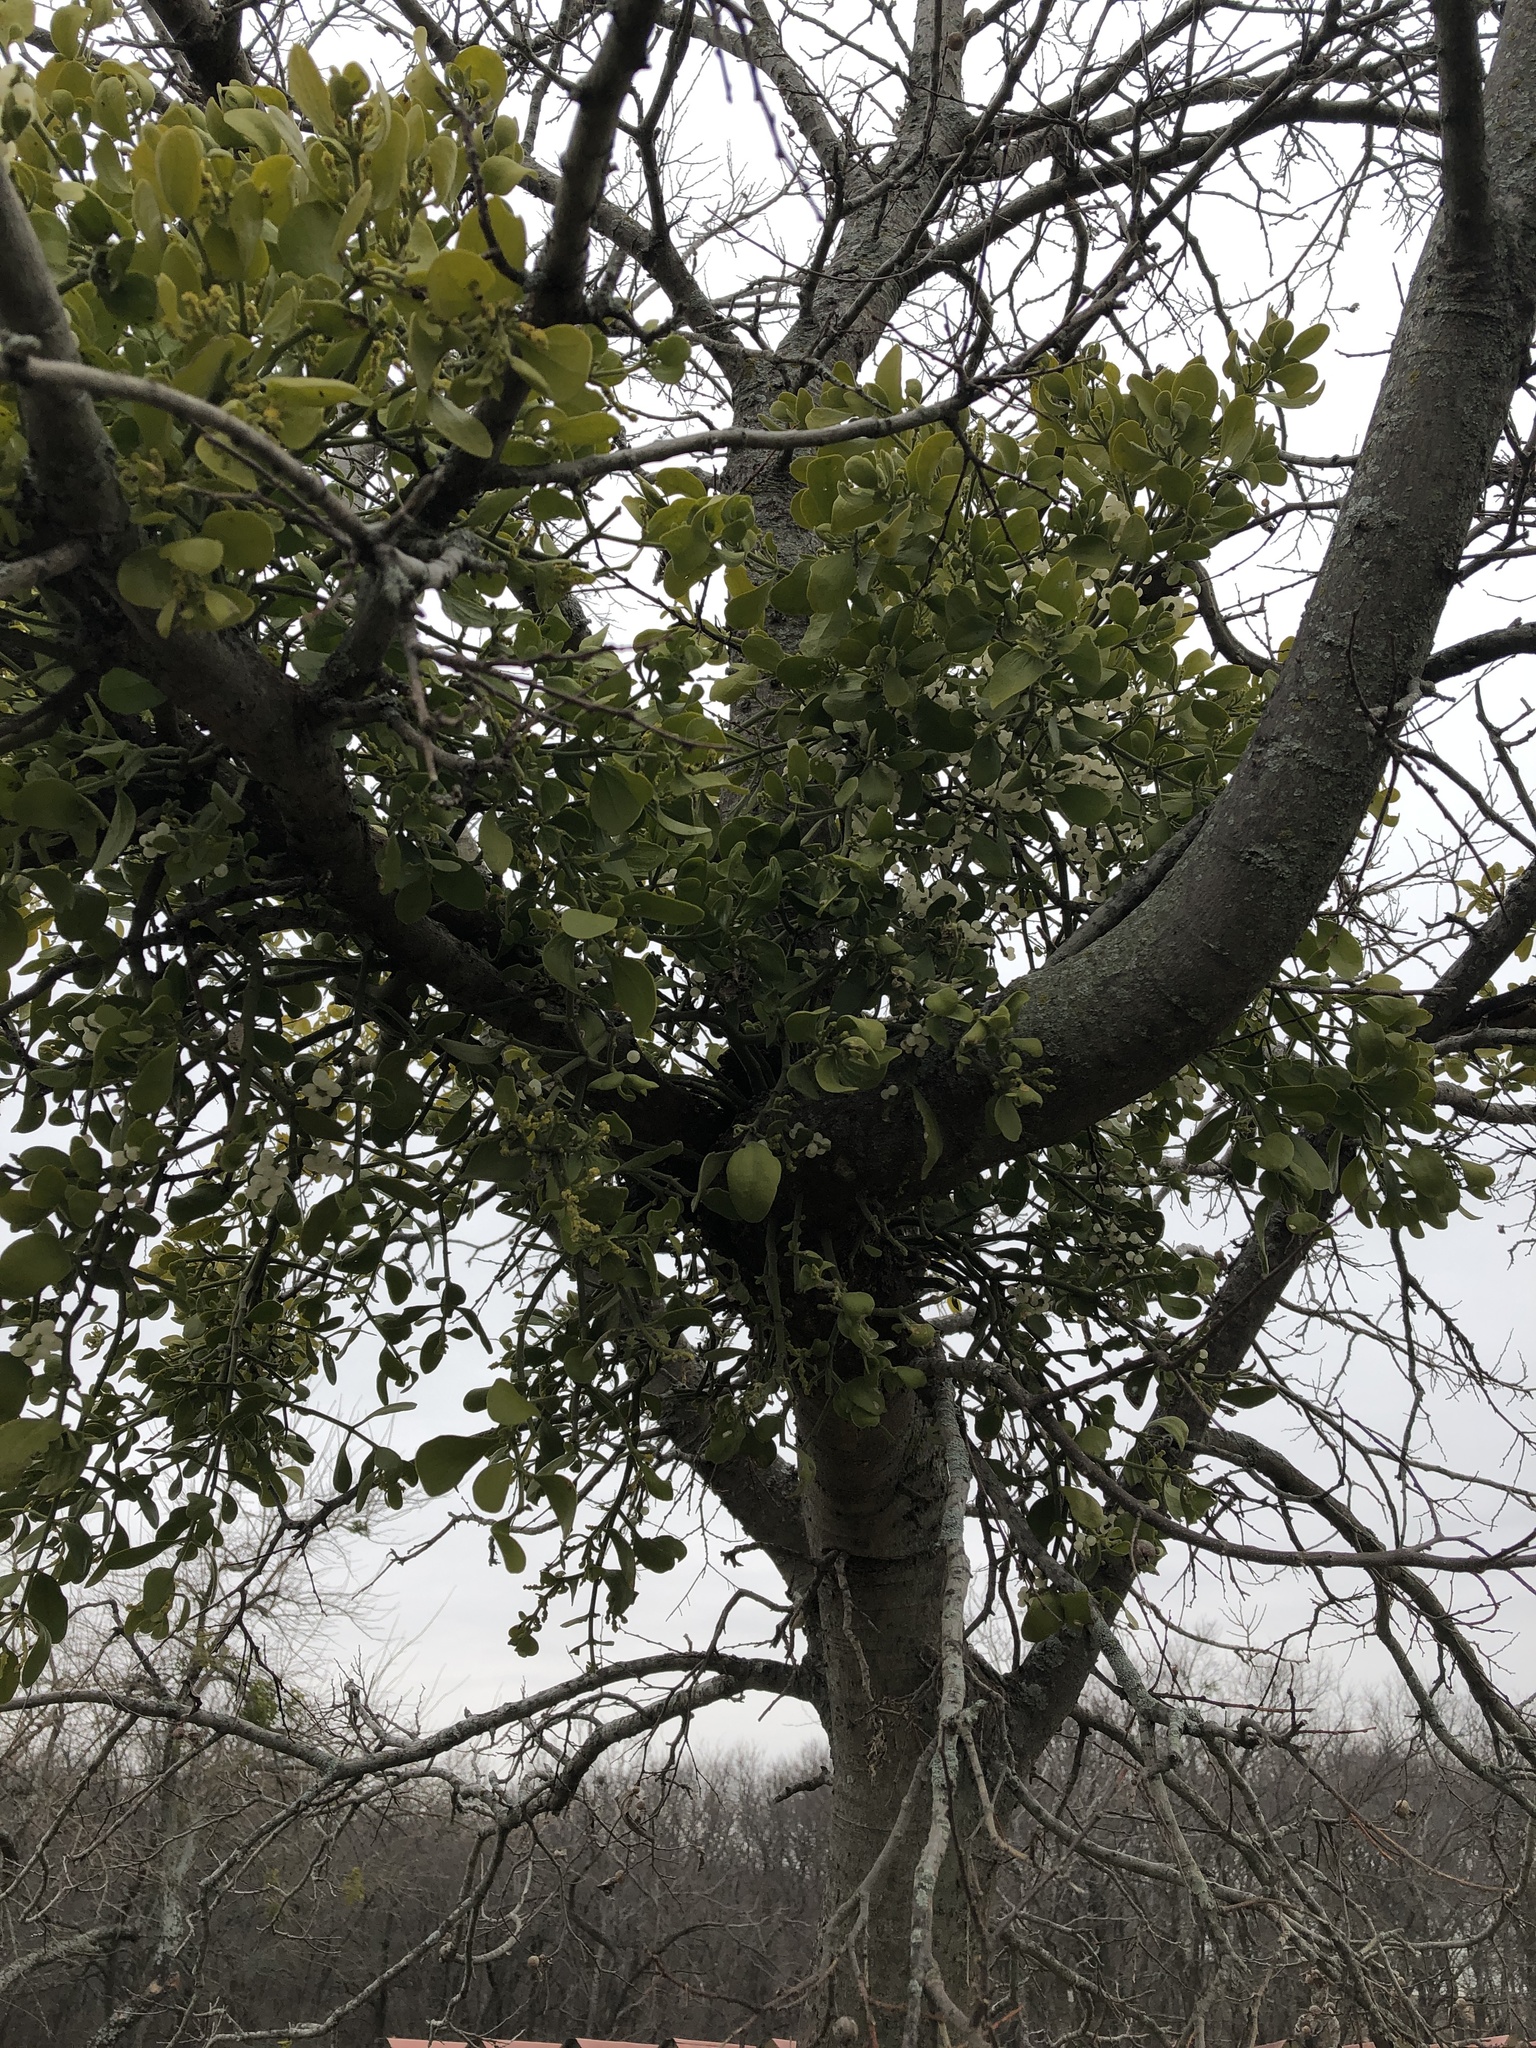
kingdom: Plantae
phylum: Tracheophyta
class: Magnoliopsida
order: Santalales
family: Viscaceae
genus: Phoradendron
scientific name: Phoradendron leucarpum
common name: Pacific mistletoe
